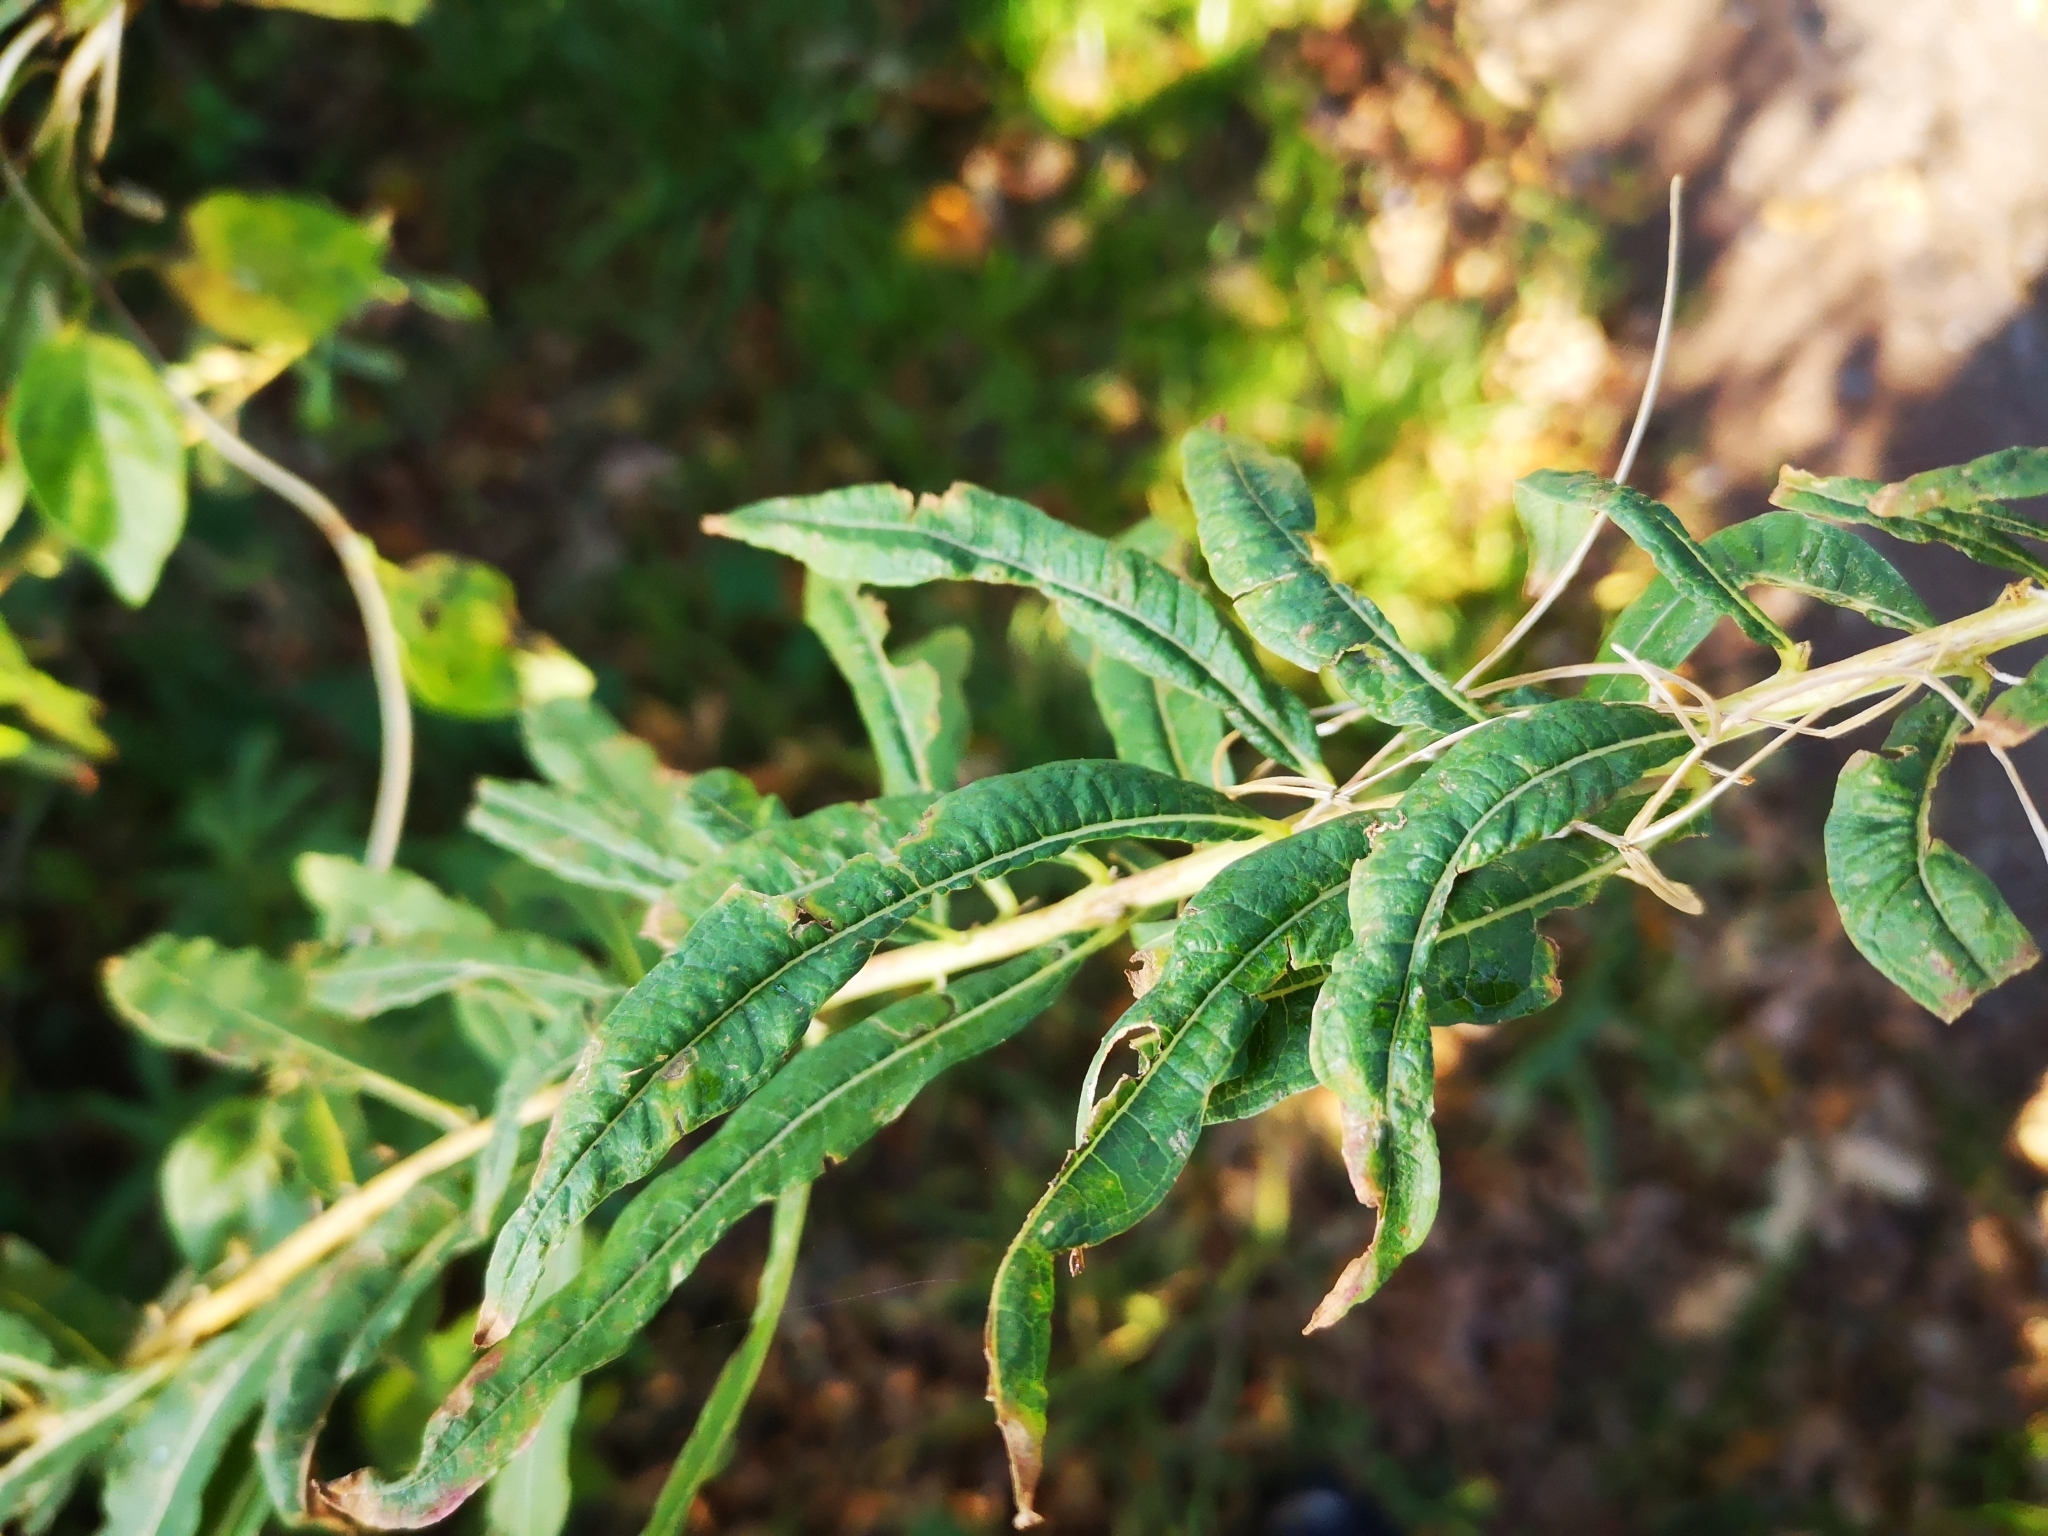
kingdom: Plantae
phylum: Tracheophyta
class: Magnoliopsida
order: Myrtales
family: Onagraceae
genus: Chamaenerion
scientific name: Chamaenerion angustifolium
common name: Fireweed
